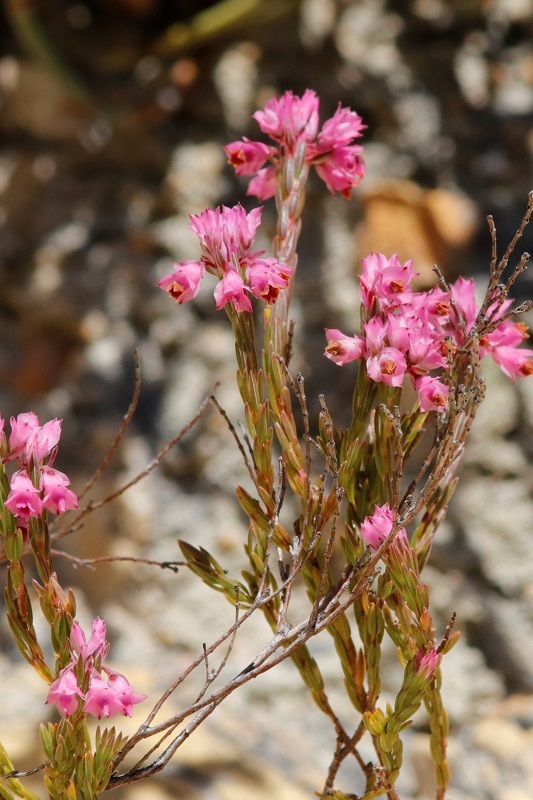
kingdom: Plantae
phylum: Tracheophyta
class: Magnoliopsida
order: Ericales
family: Ericaceae
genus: Erica
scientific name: Erica corifolia
